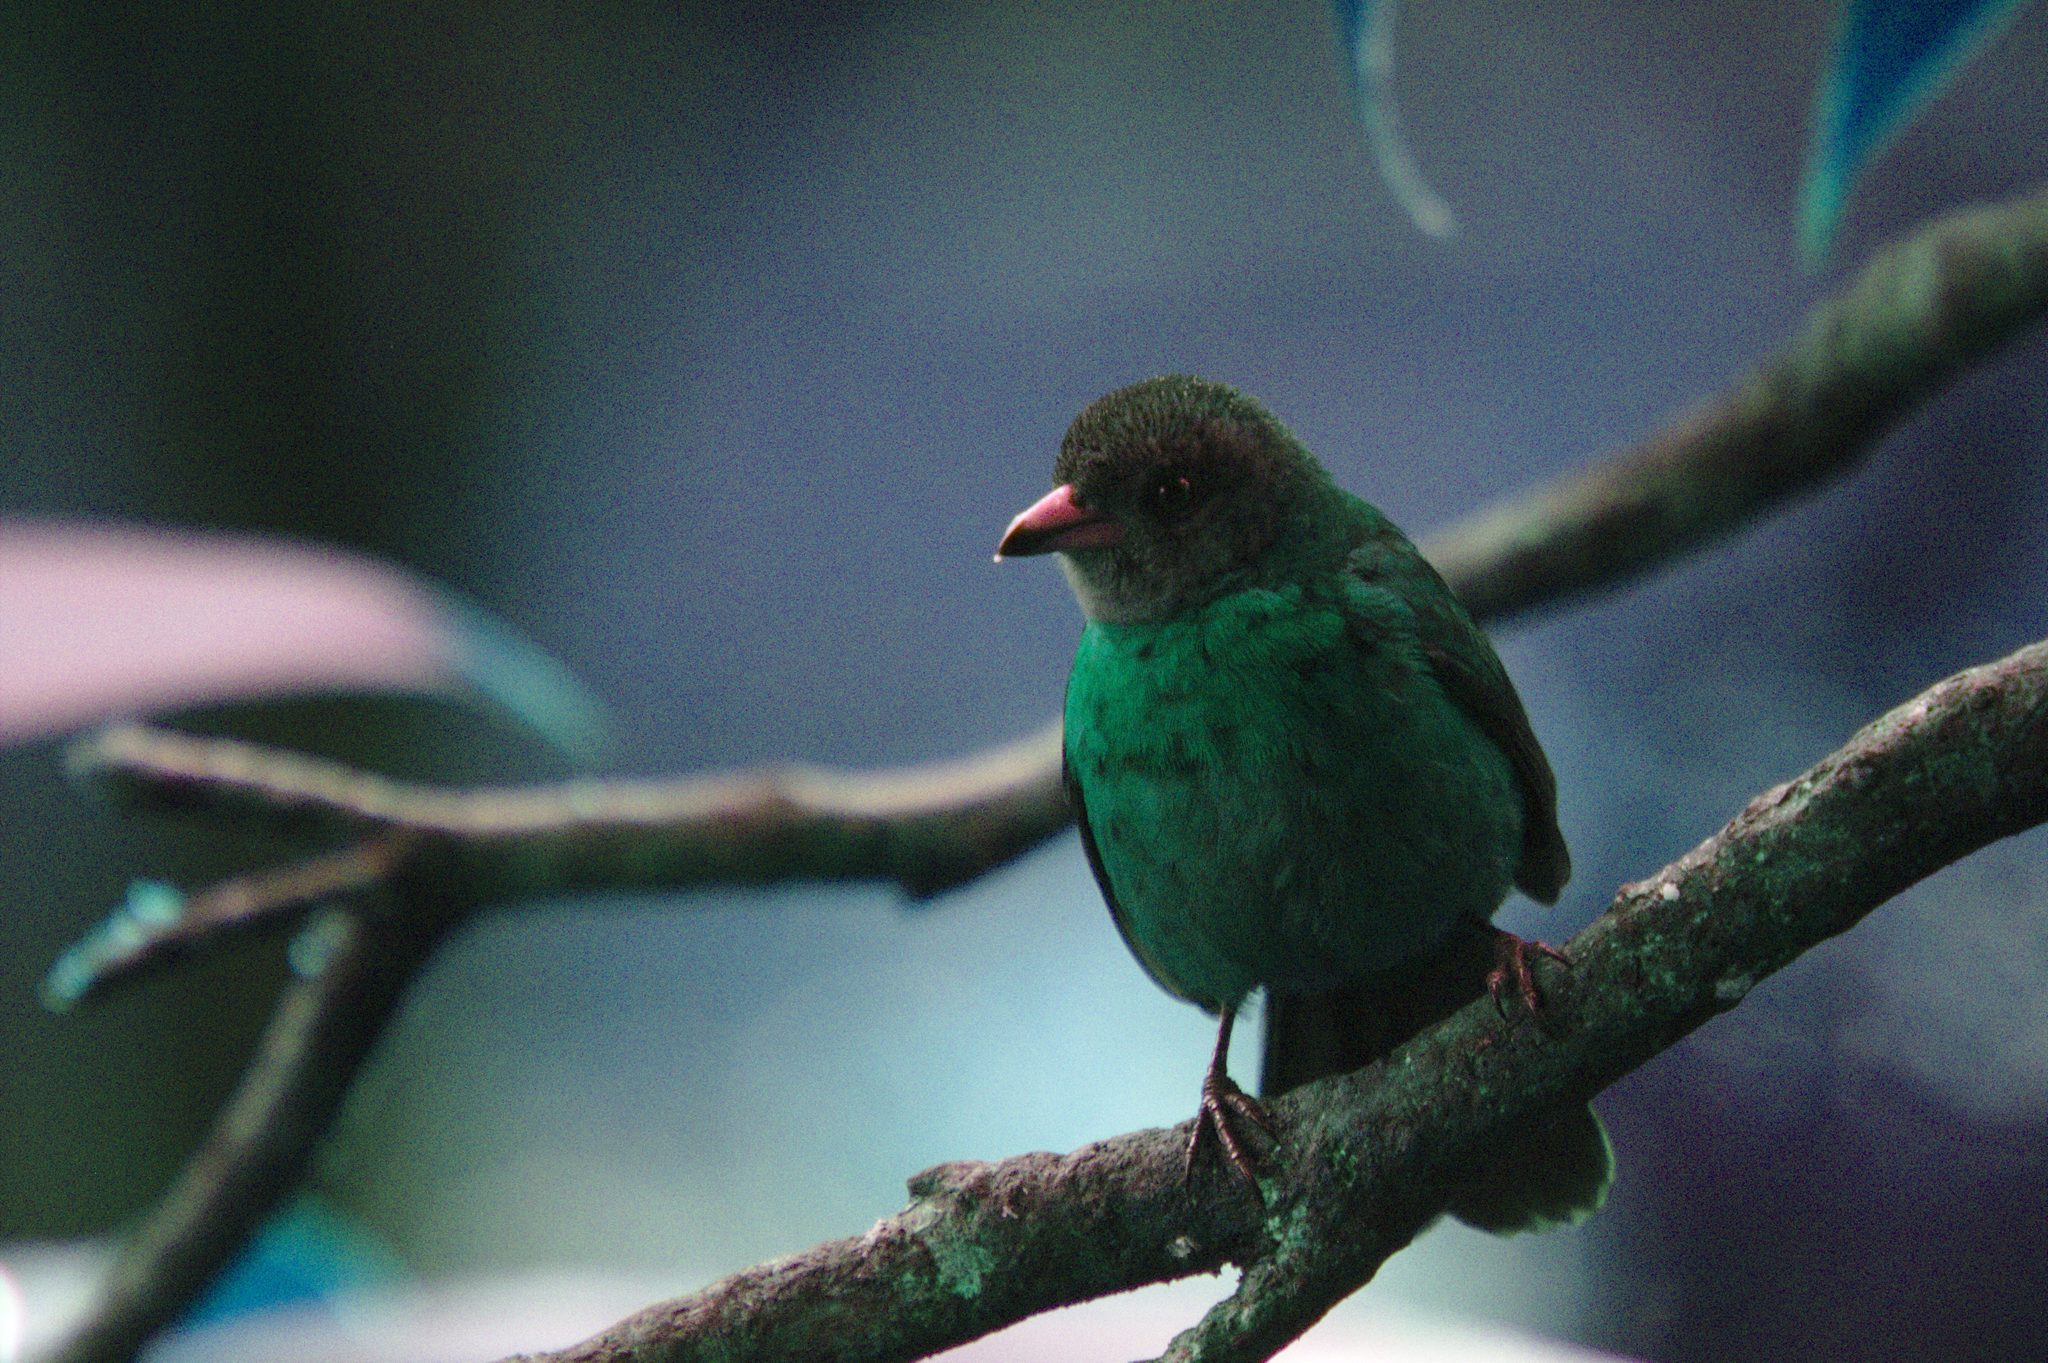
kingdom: Animalia
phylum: Chordata
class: Aves
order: Passeriformes
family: Thraupidae
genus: Ramphocelus
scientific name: Ramphocelus passerinii
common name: Passerini's tanager
